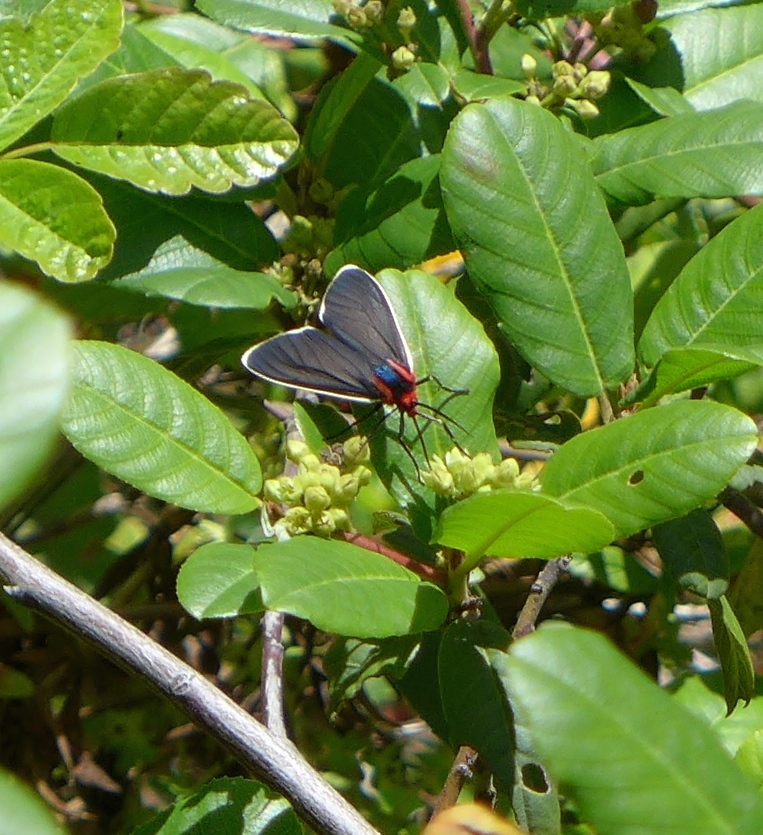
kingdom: Animalia
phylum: Arthropoda
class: Insecta
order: Lepidoptera
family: Erebidae
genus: Ctenucha
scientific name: Ctenucha multifaria
